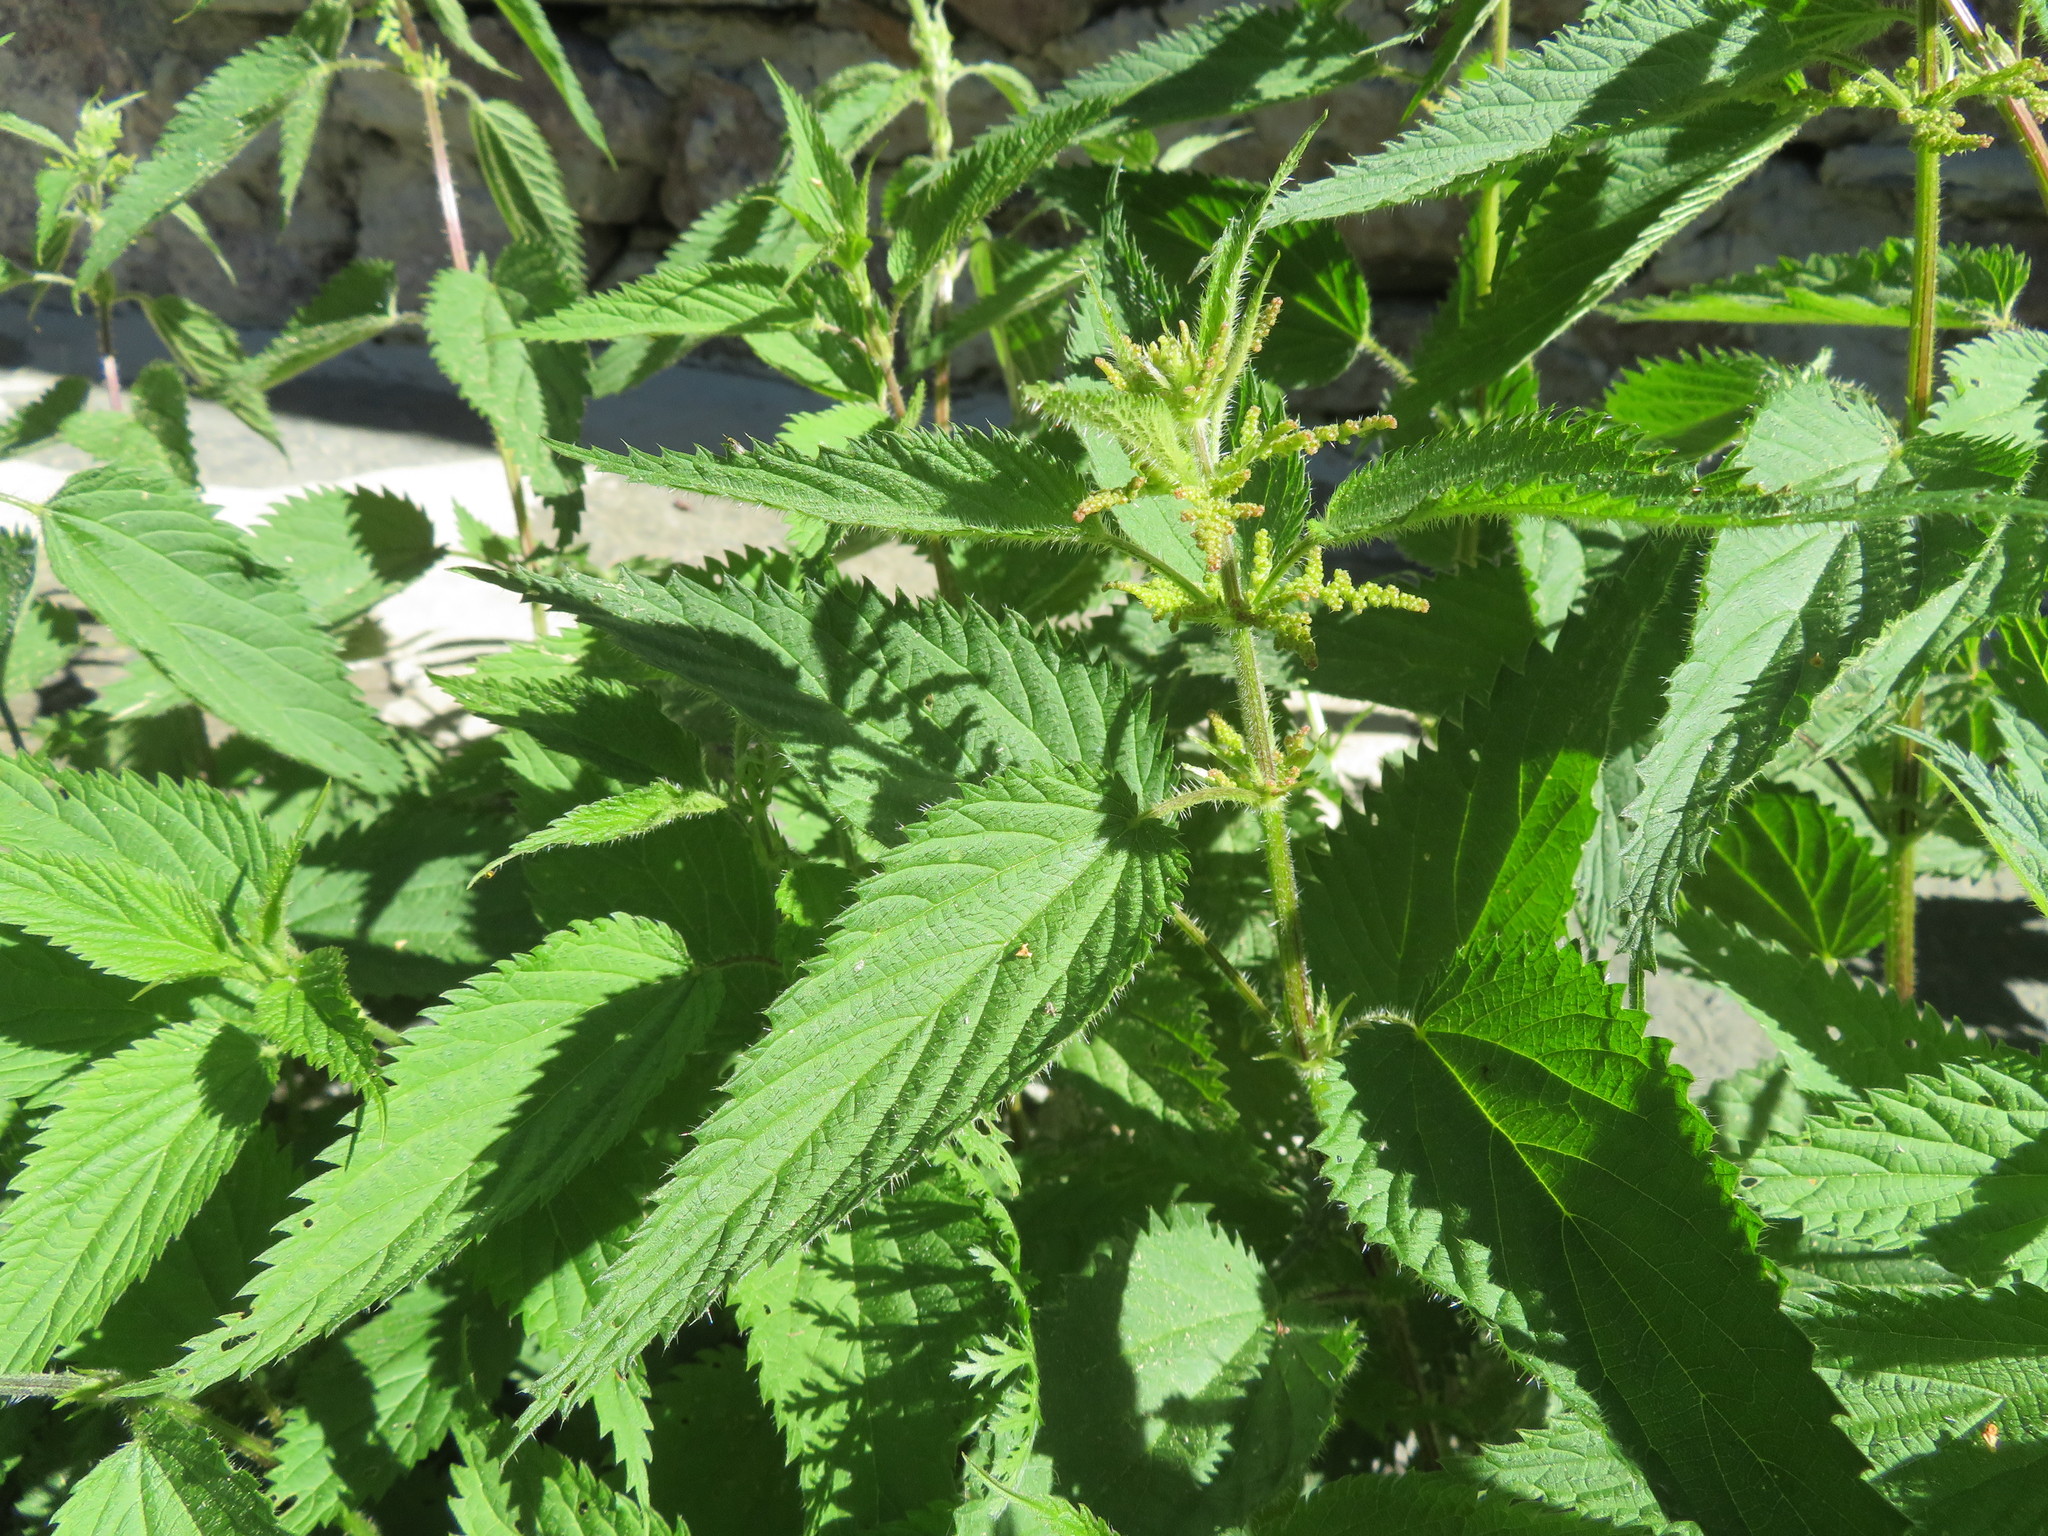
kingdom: Plantae
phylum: Tracheophyta
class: Magnoliopsida
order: Rosales
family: Urticaceae
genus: Urtica
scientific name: Urtica dioica
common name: Common nettle
